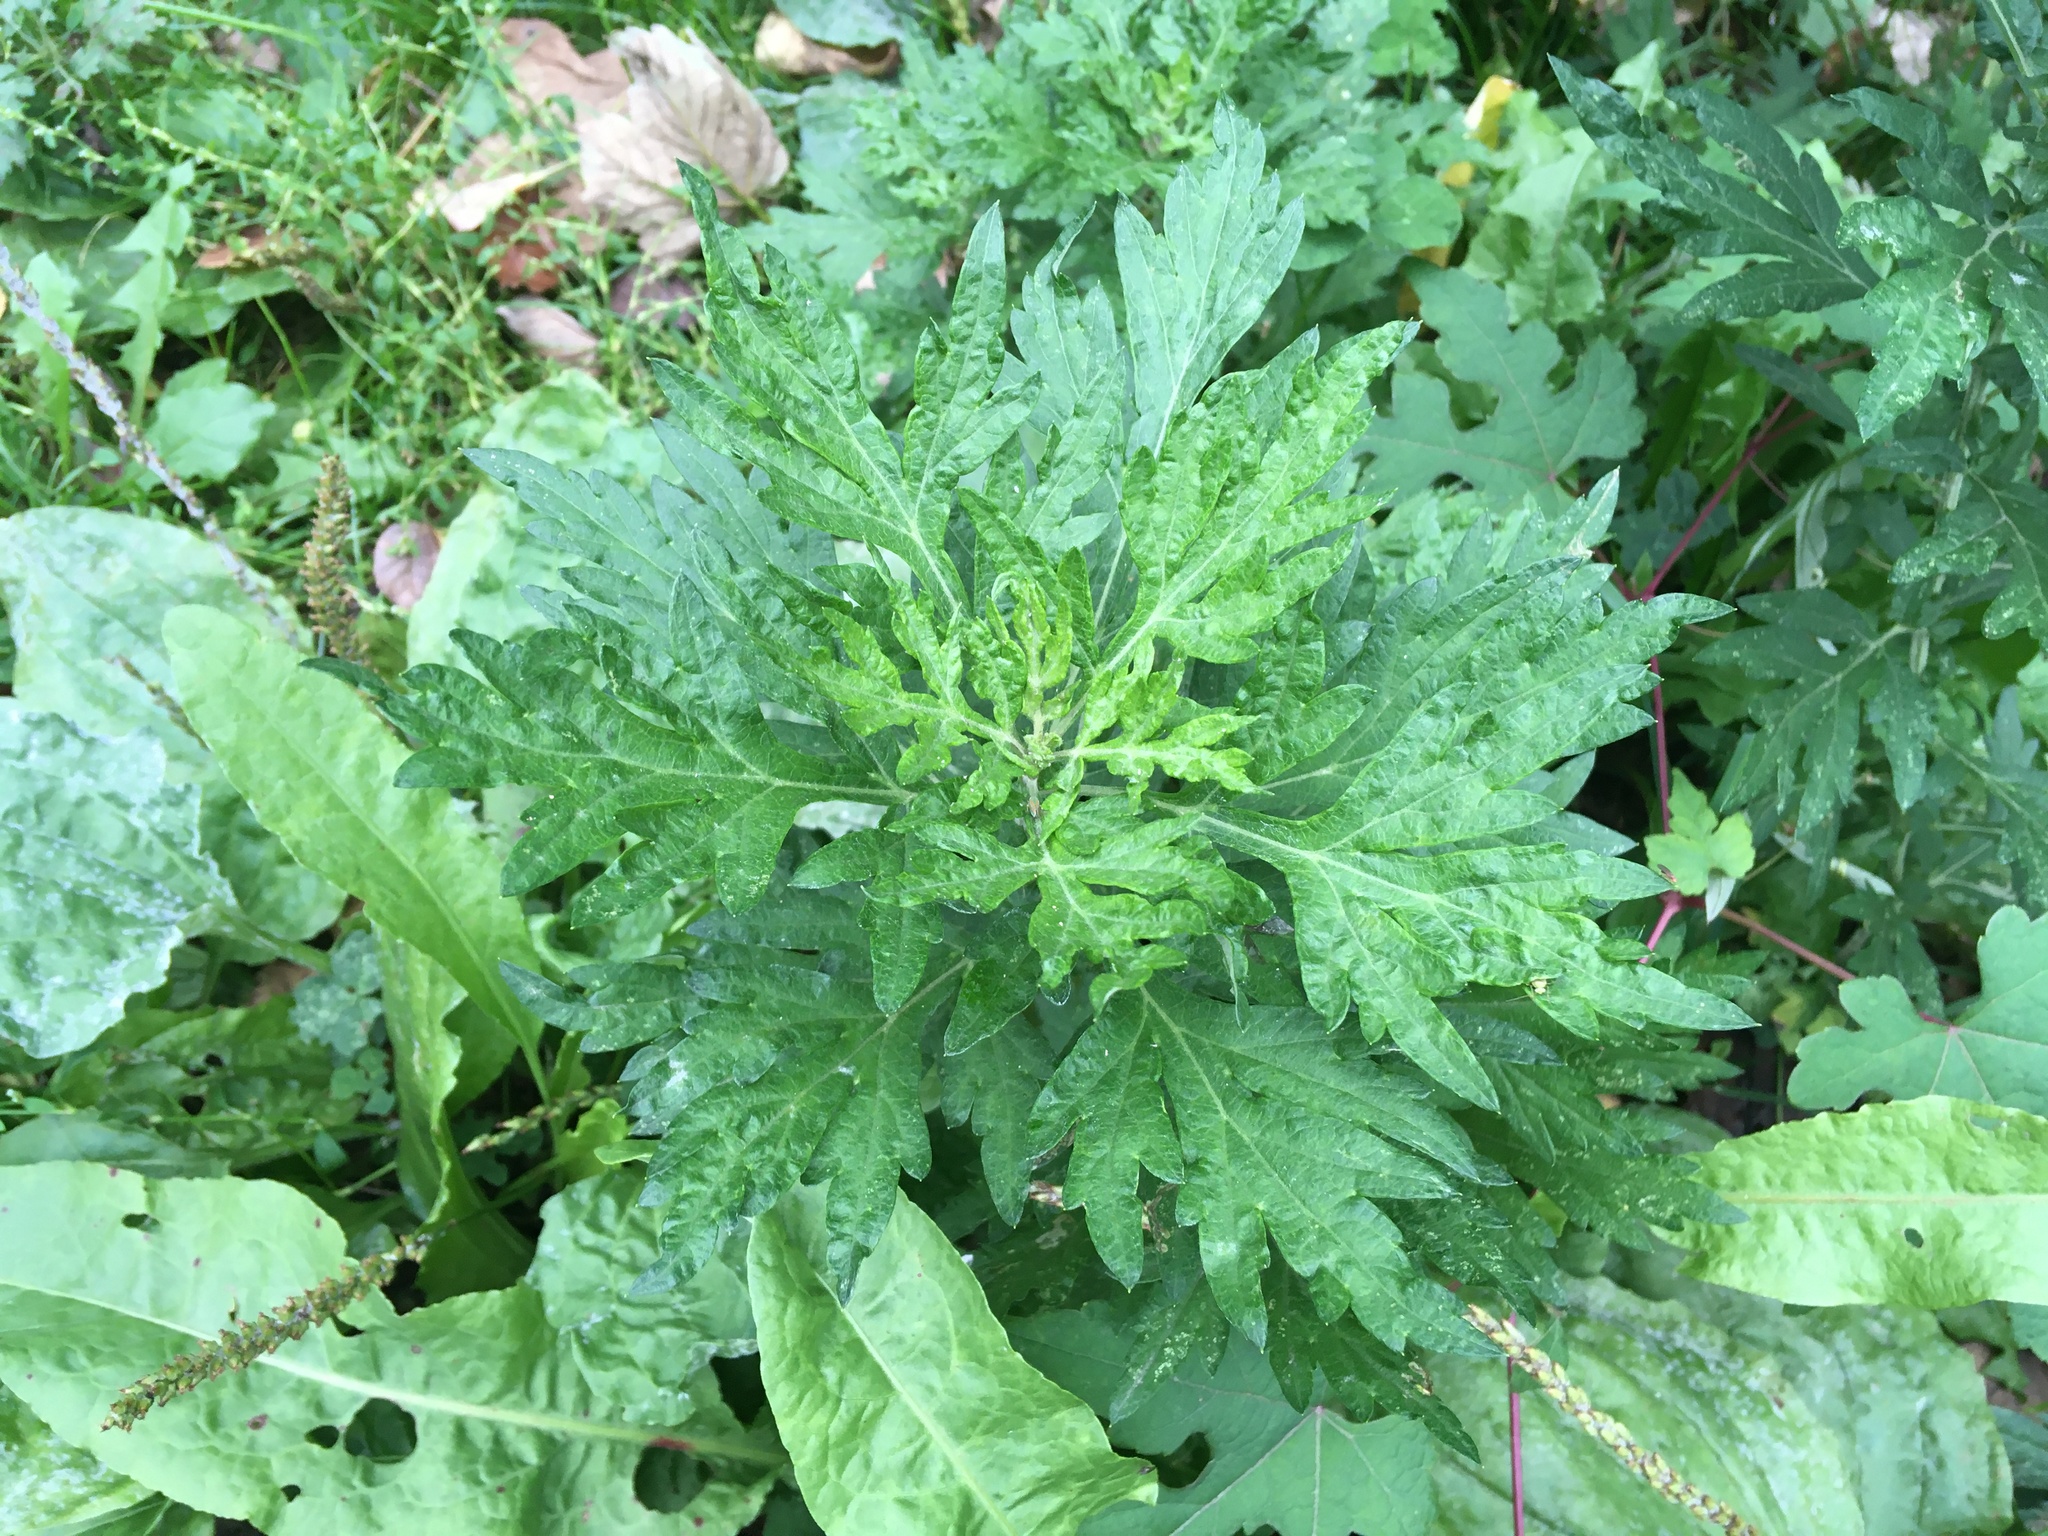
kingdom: Plantae
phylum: Tracheophyta
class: Magnoliopsida
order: Asterales
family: Asteraceae
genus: Artemisia
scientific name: Artemisia vulgaris
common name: Mugwort
